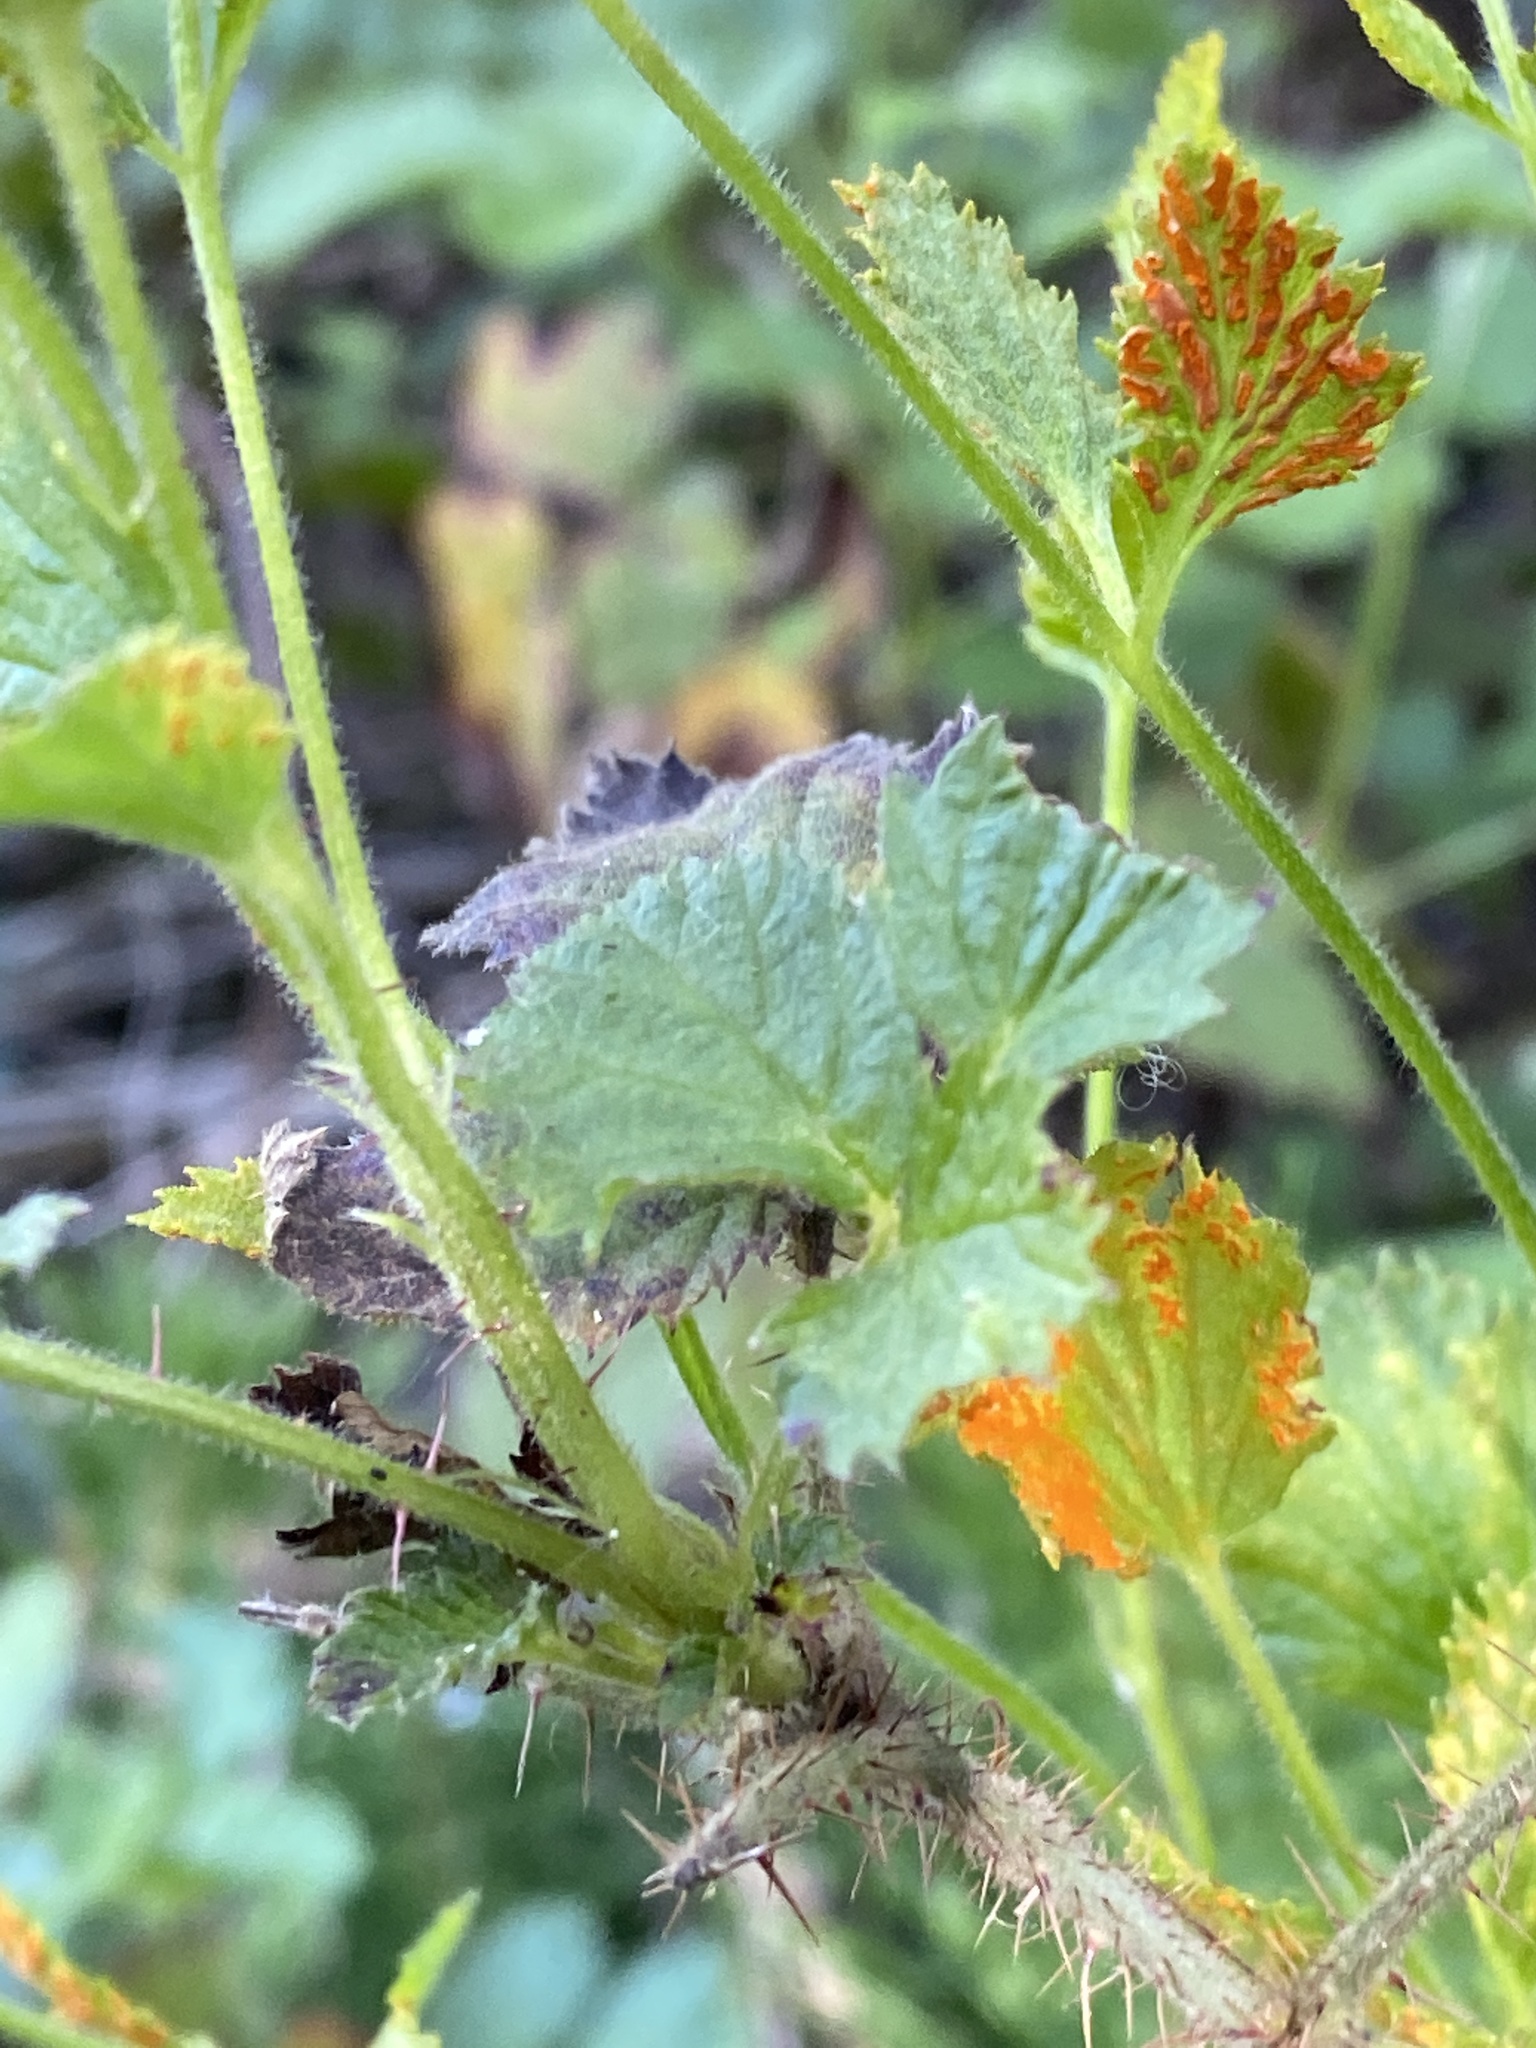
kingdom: Fungi
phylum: Basidiomycota
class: Pucciniomycetes
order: Pucciniales
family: Phragmidiaceae
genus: Arthuriomyces
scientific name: Arthuriomyces peckianus
